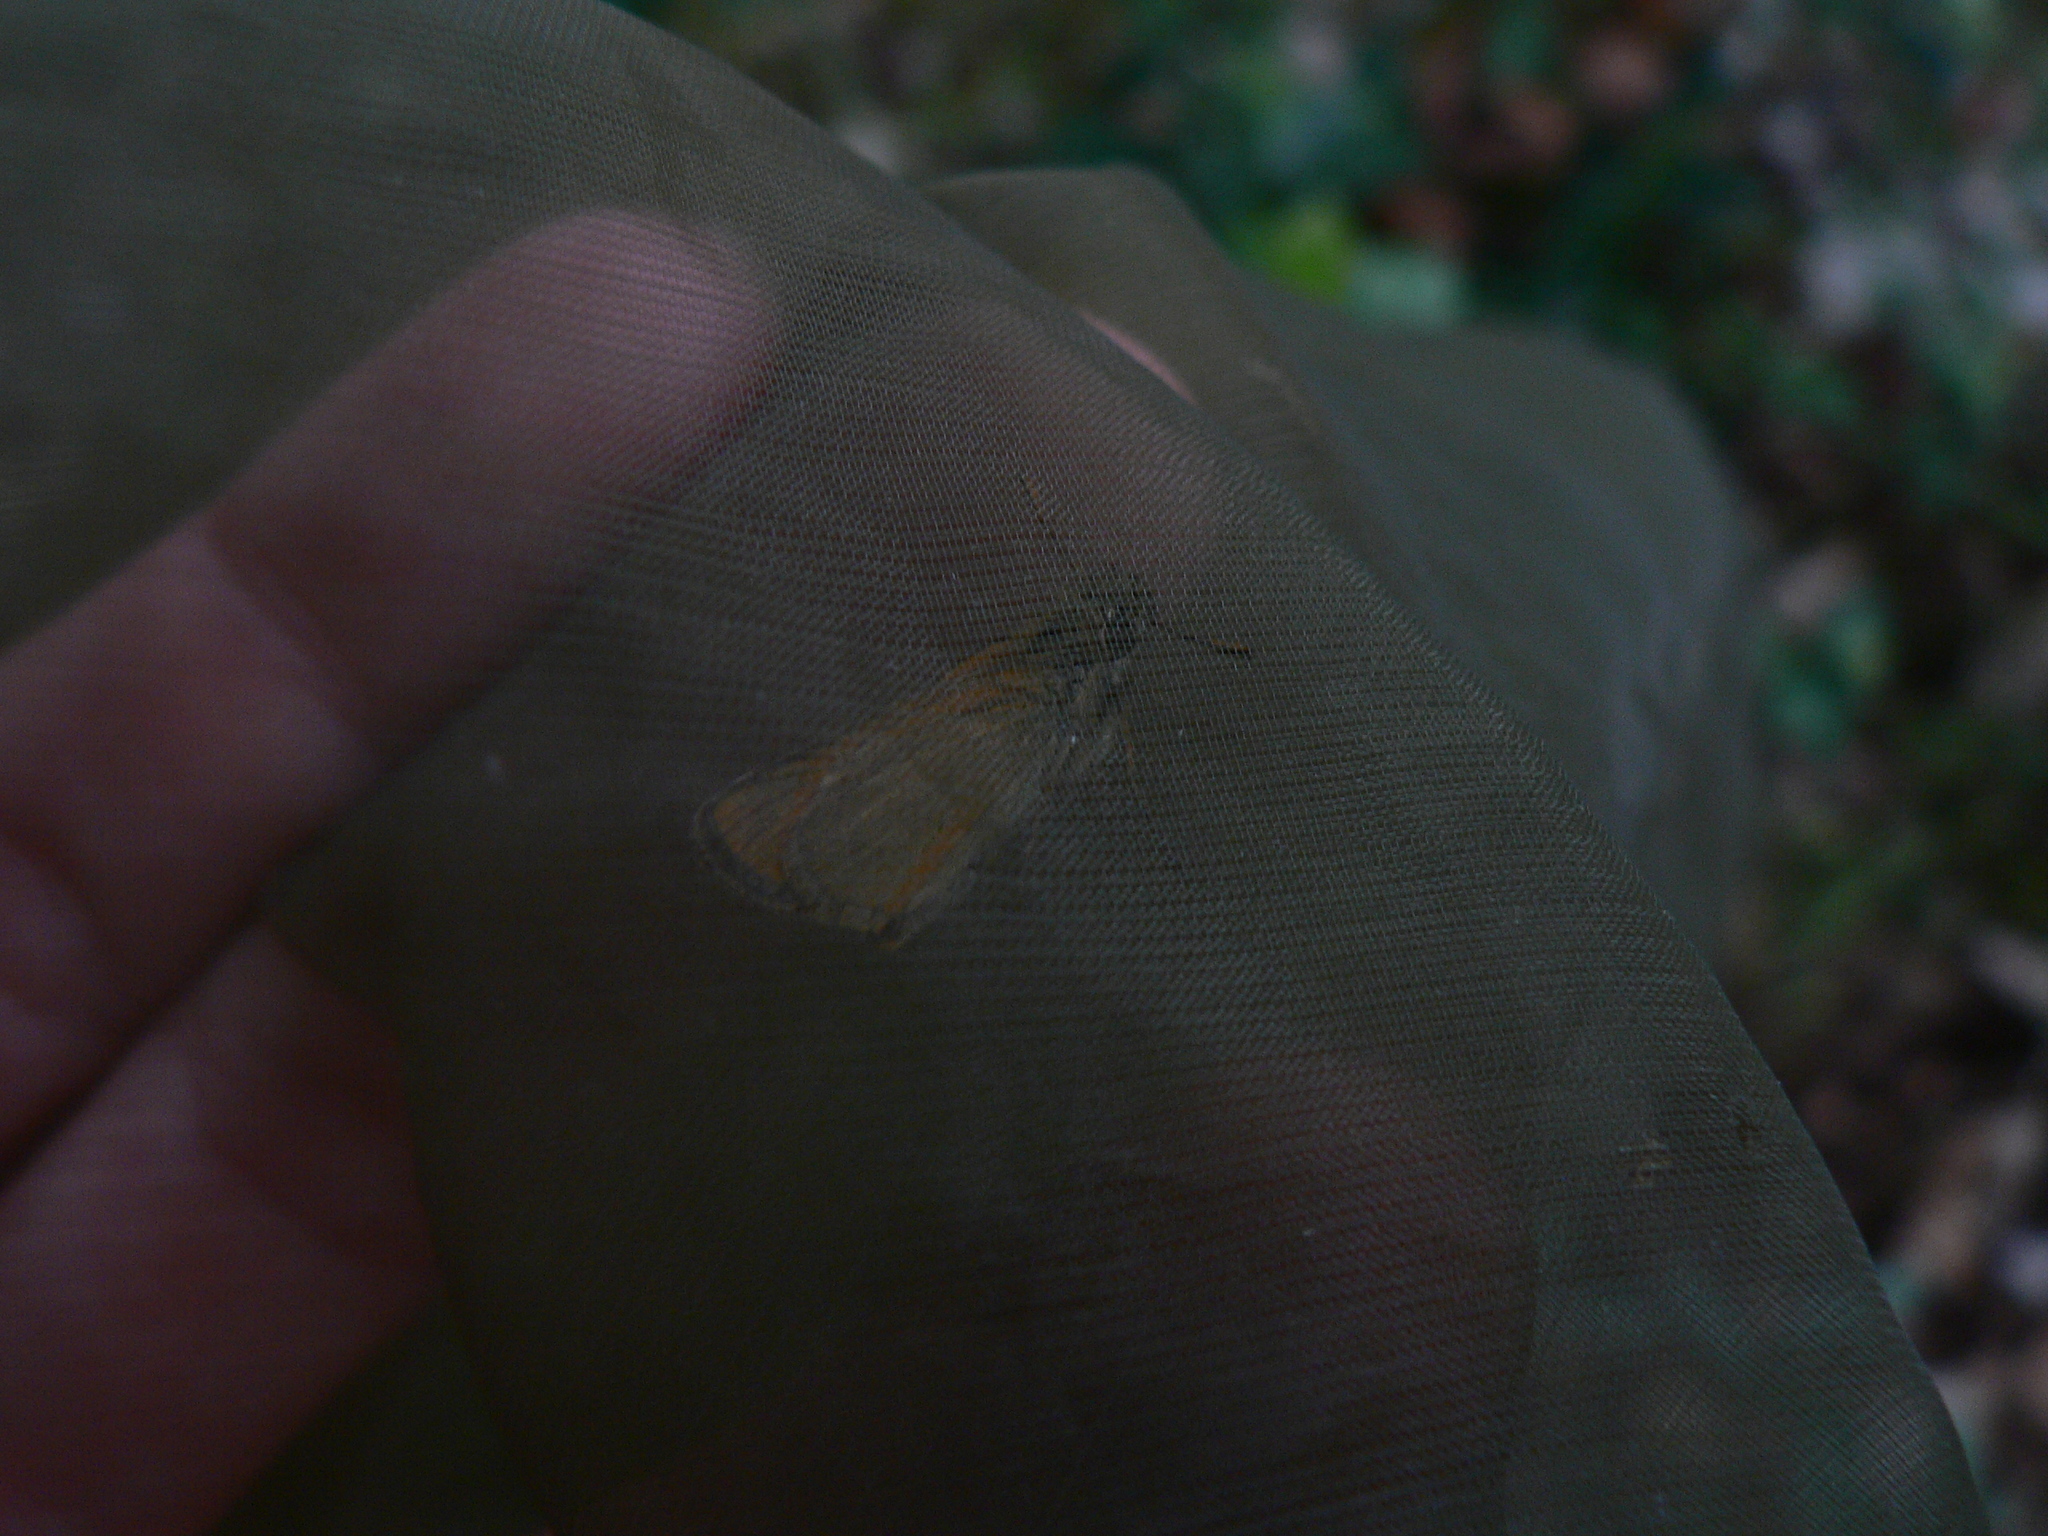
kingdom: Animalia
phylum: Arthropoda
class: Insecta
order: Lepidoptera
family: Hesperiidae
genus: Thymelicus
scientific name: Thymelicus sylvestris
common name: Small skipper
